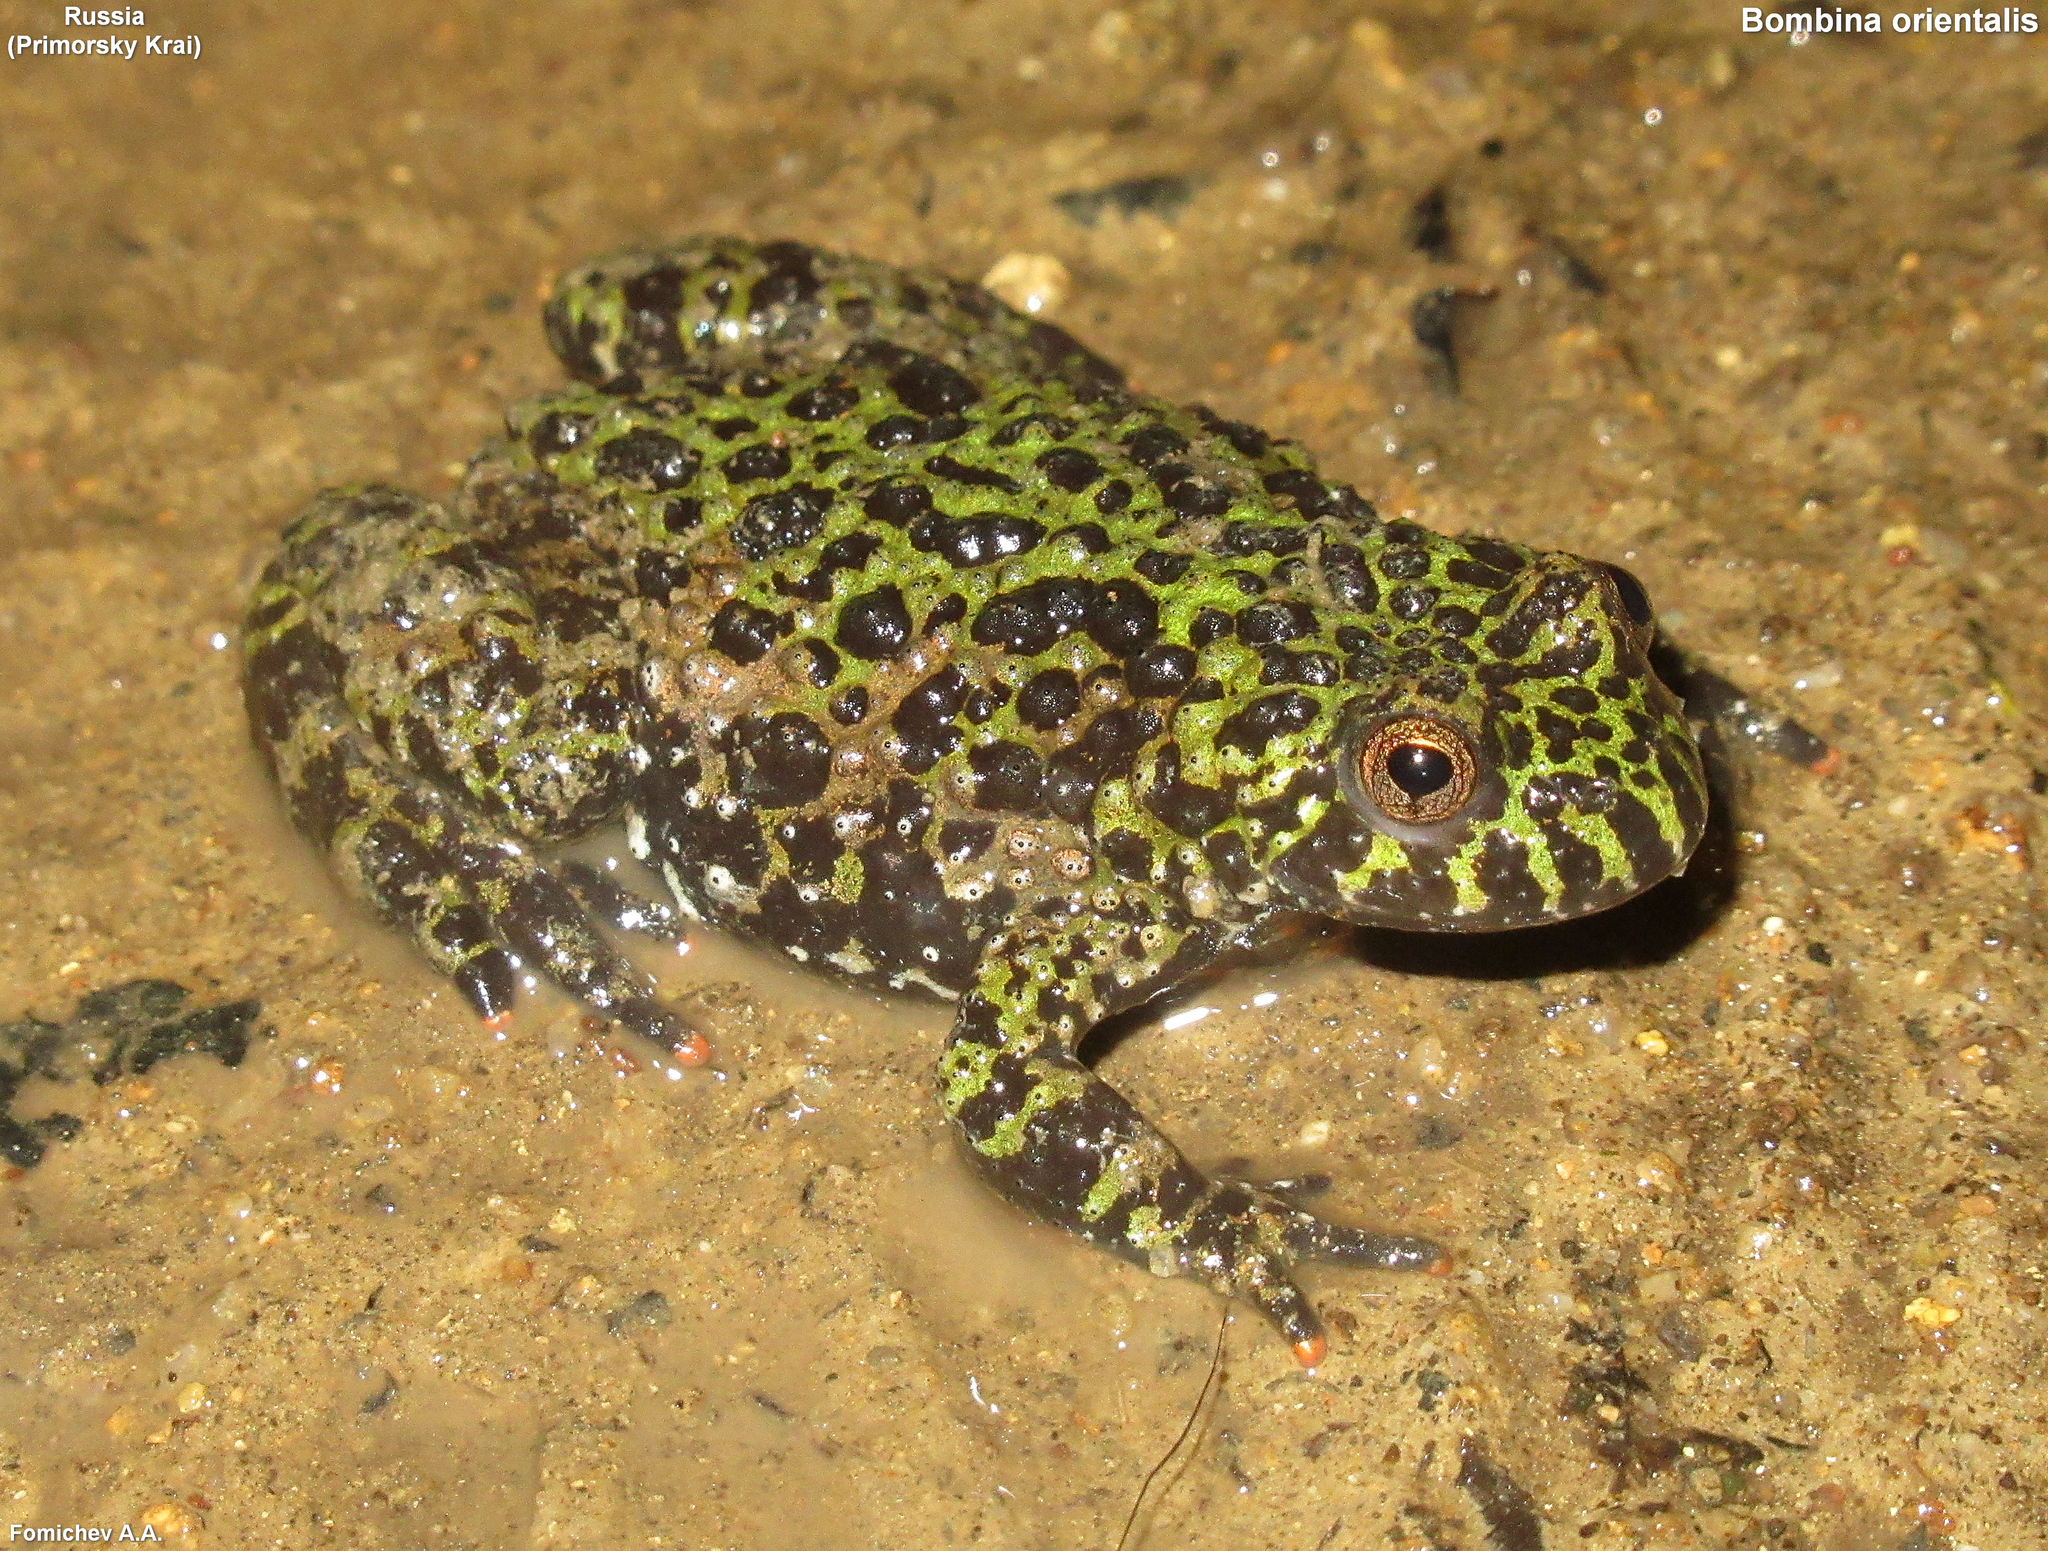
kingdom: Animalia
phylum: Chordata
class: Amphibia
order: Anura
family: Bombinatoridae
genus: Bombina
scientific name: Bombina orientalis
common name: Oriental firebelly toad
